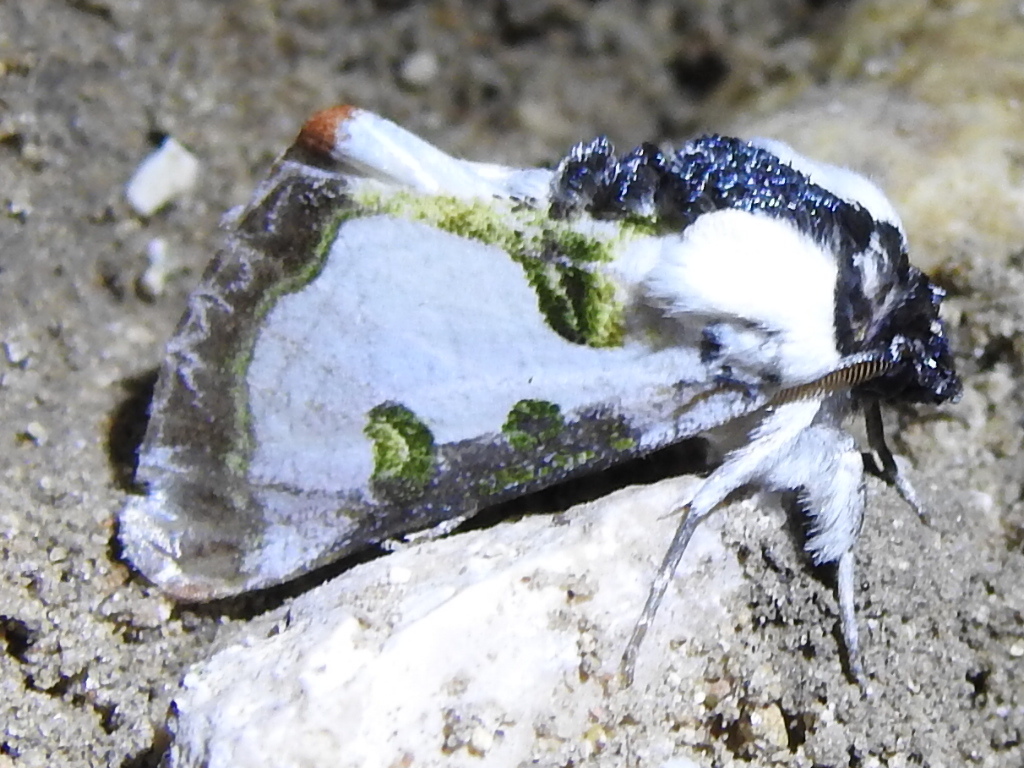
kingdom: Animalia
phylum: Arthropoda
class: Insecta
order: Lepidoptera
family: Noctuidae
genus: Xerociris
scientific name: Xerociris wilsonii
